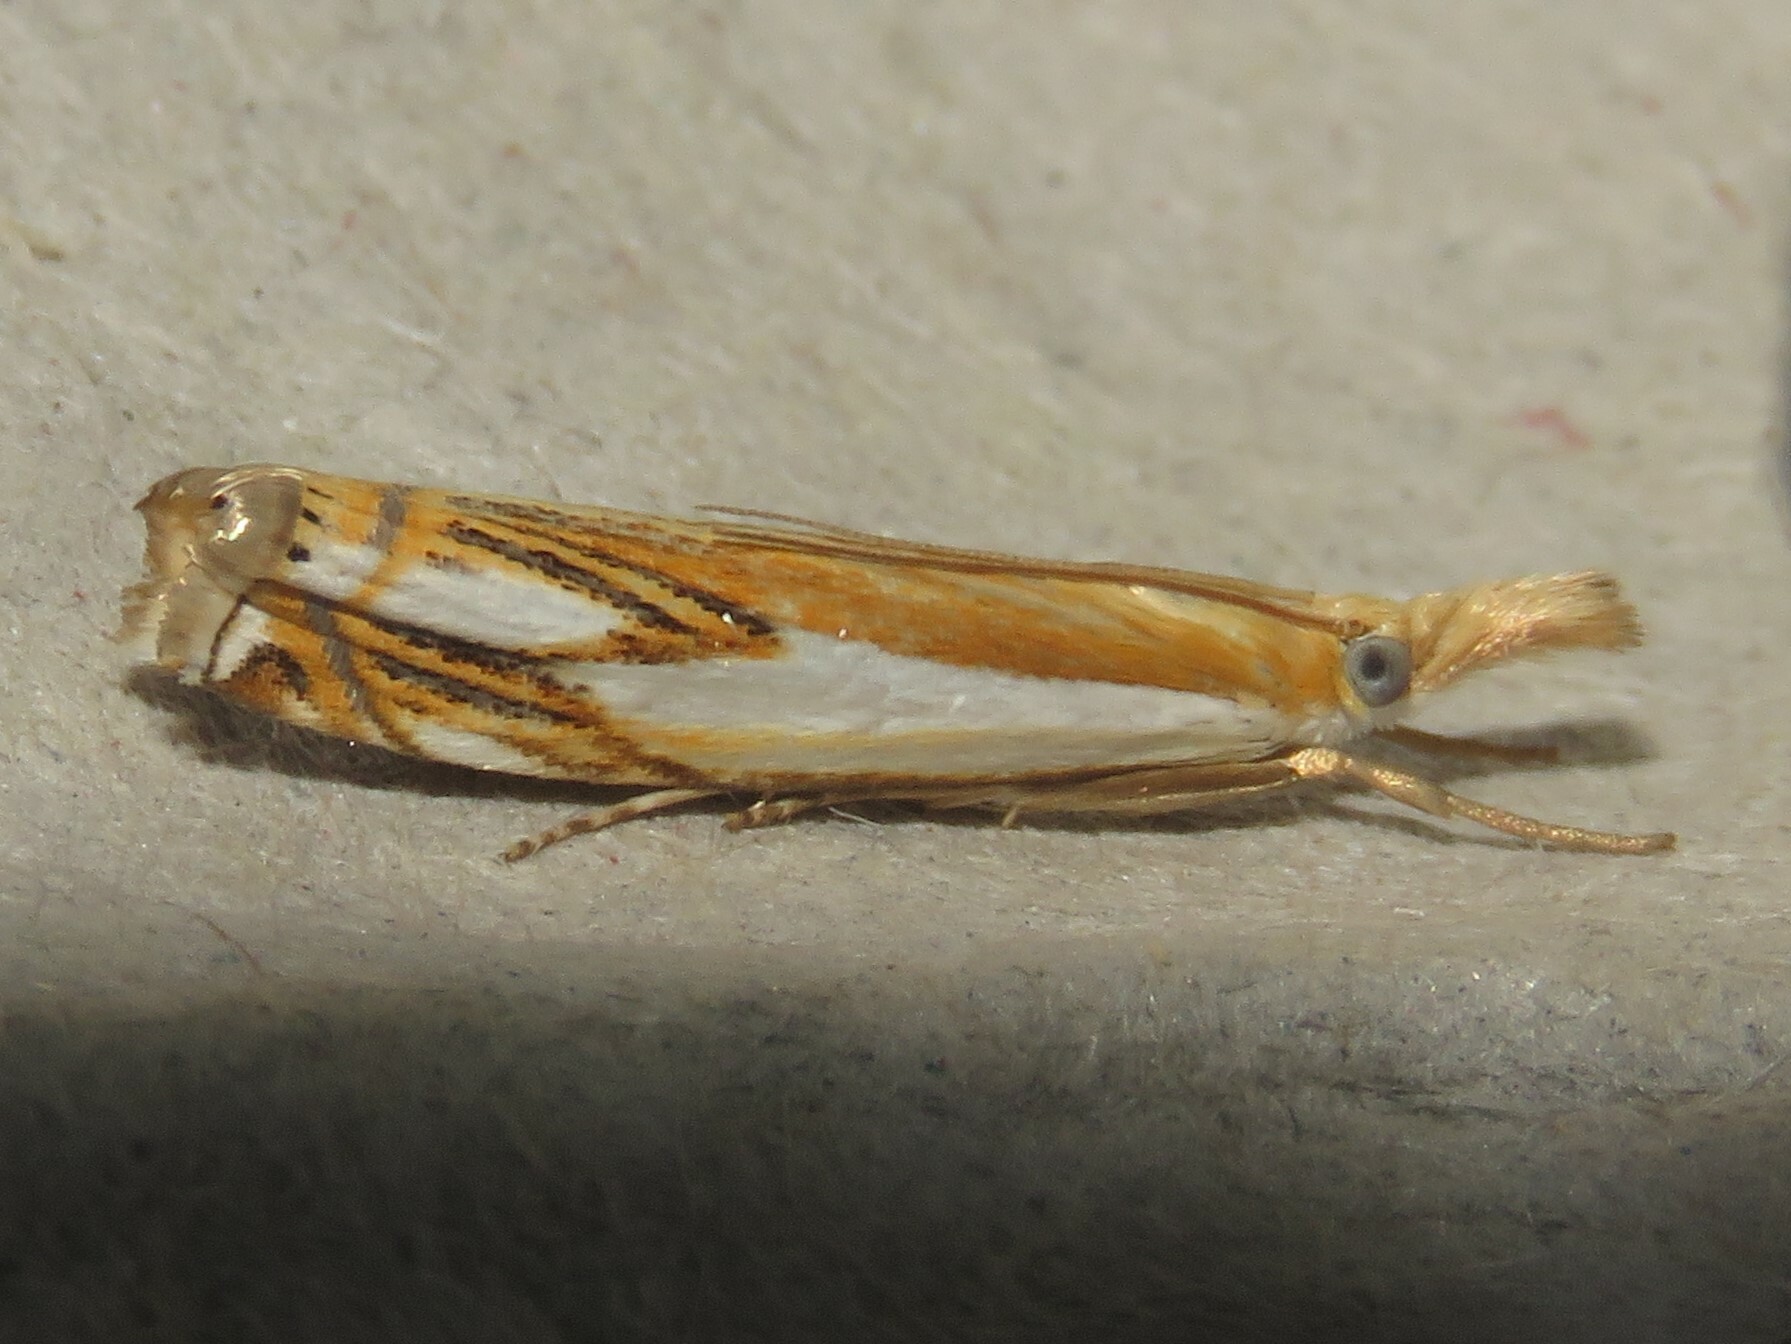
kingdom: Animalia
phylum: Arthropoda
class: Insecta
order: Lepidoptera
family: Crambidae
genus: Crambus
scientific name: Crambus agitatellus
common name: Double-banded grass-veneer
